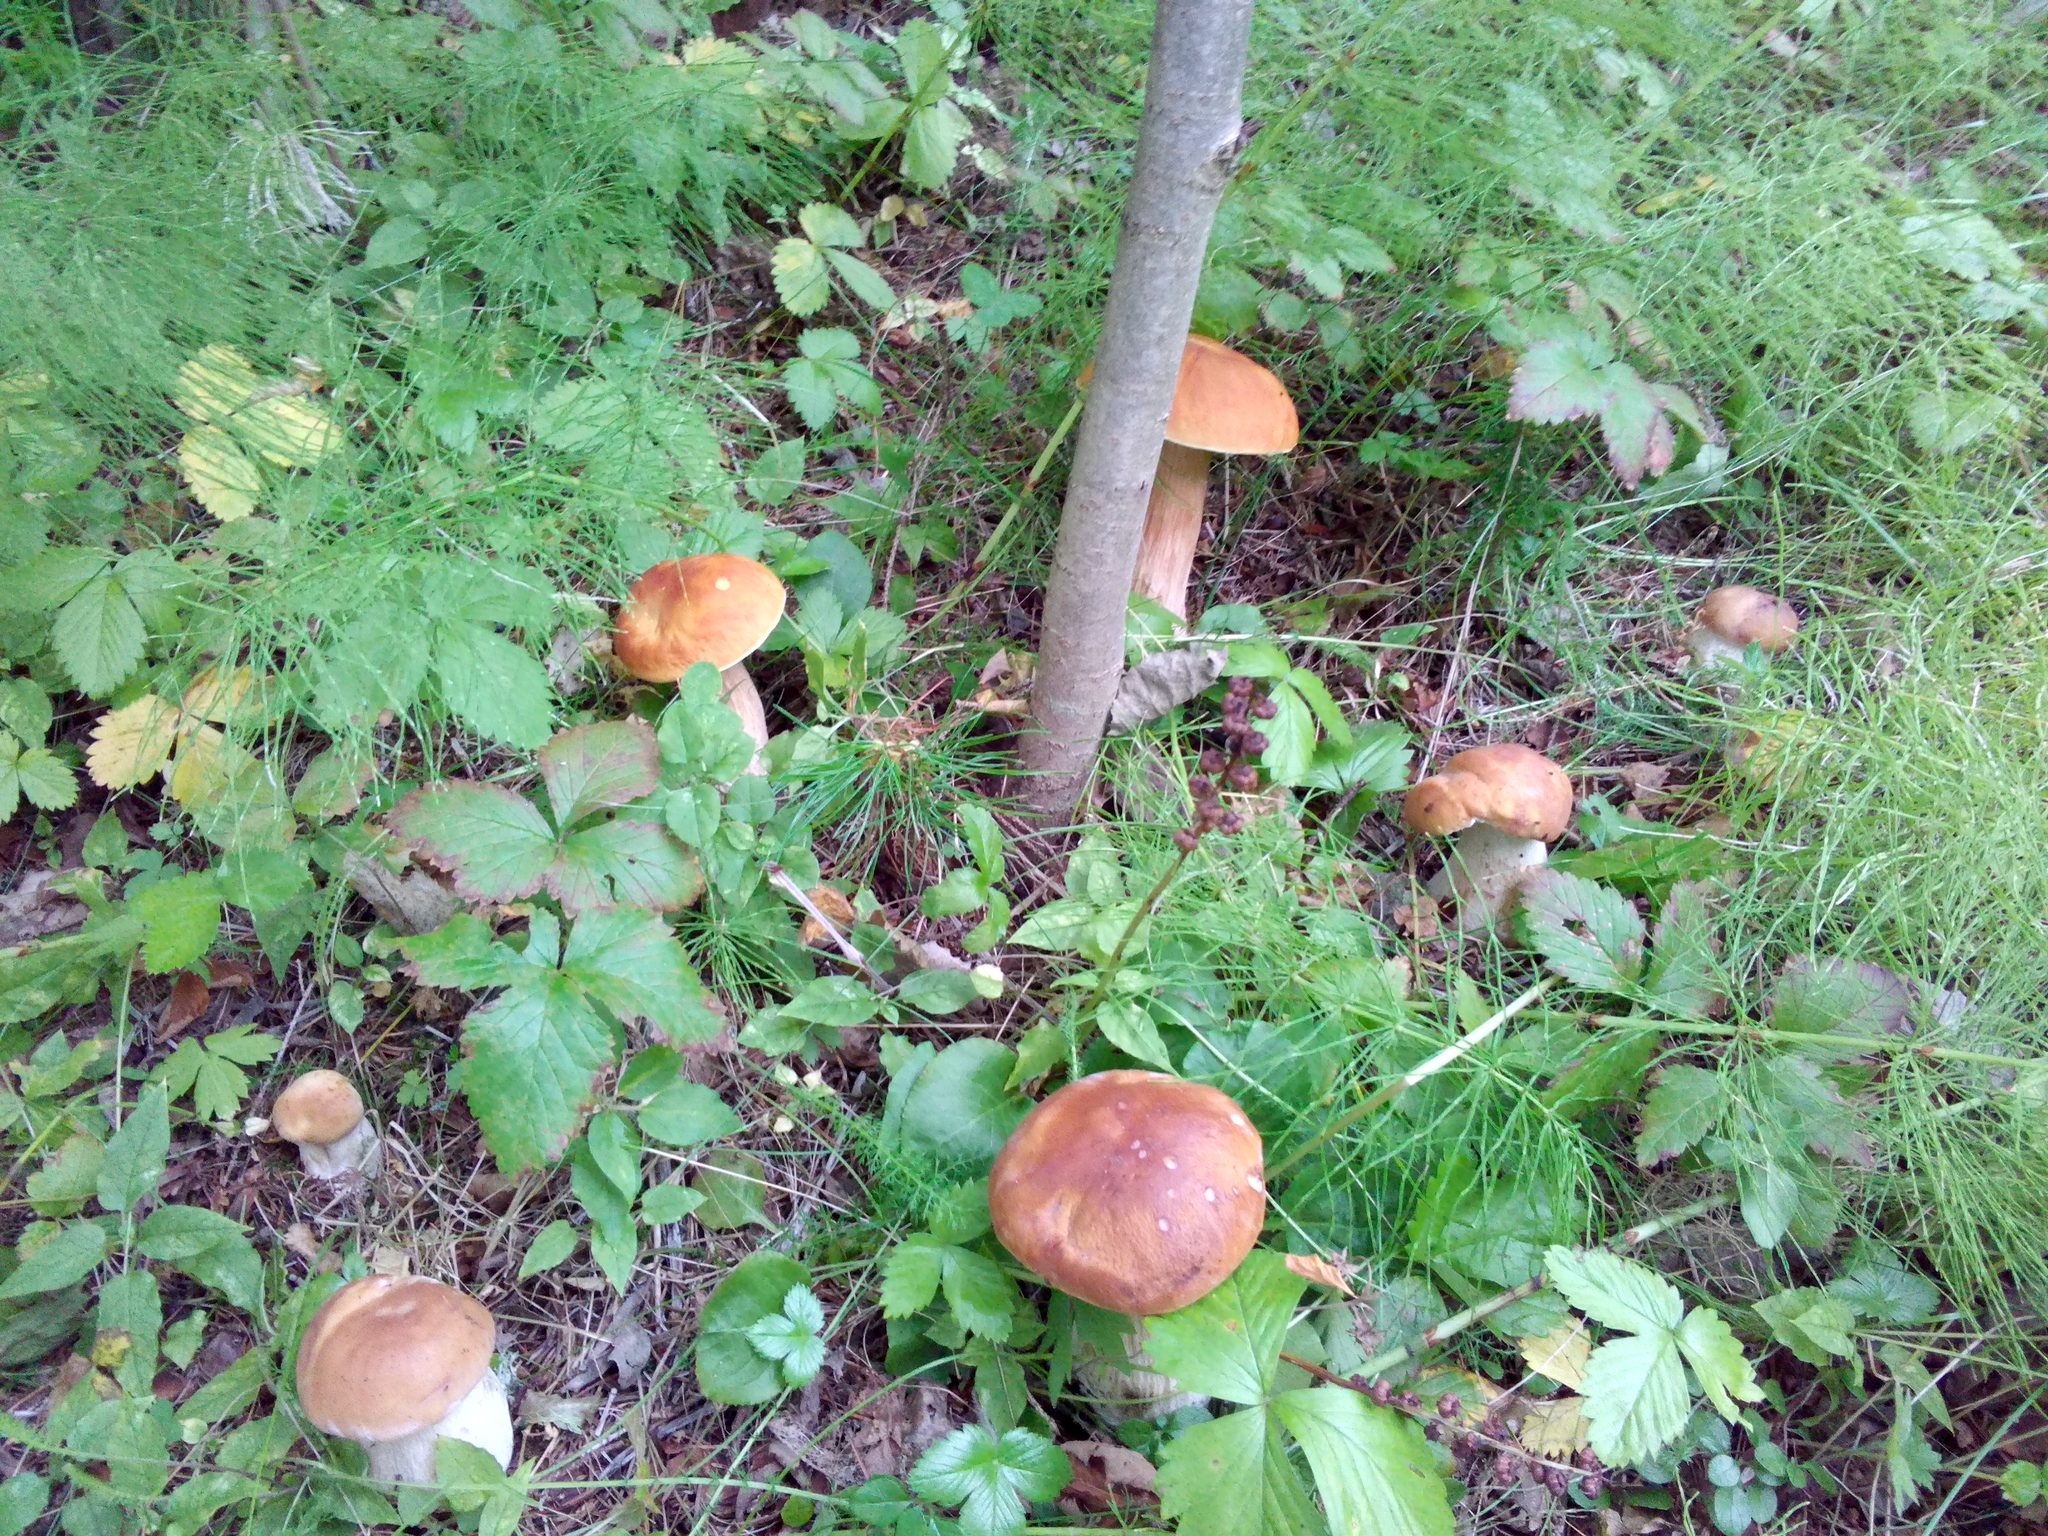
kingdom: Fungi
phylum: Basidiomycota
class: Agaricomycetes
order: Boletales
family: Boletaceae
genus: Boletus
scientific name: Boletus edulis
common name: Cep
